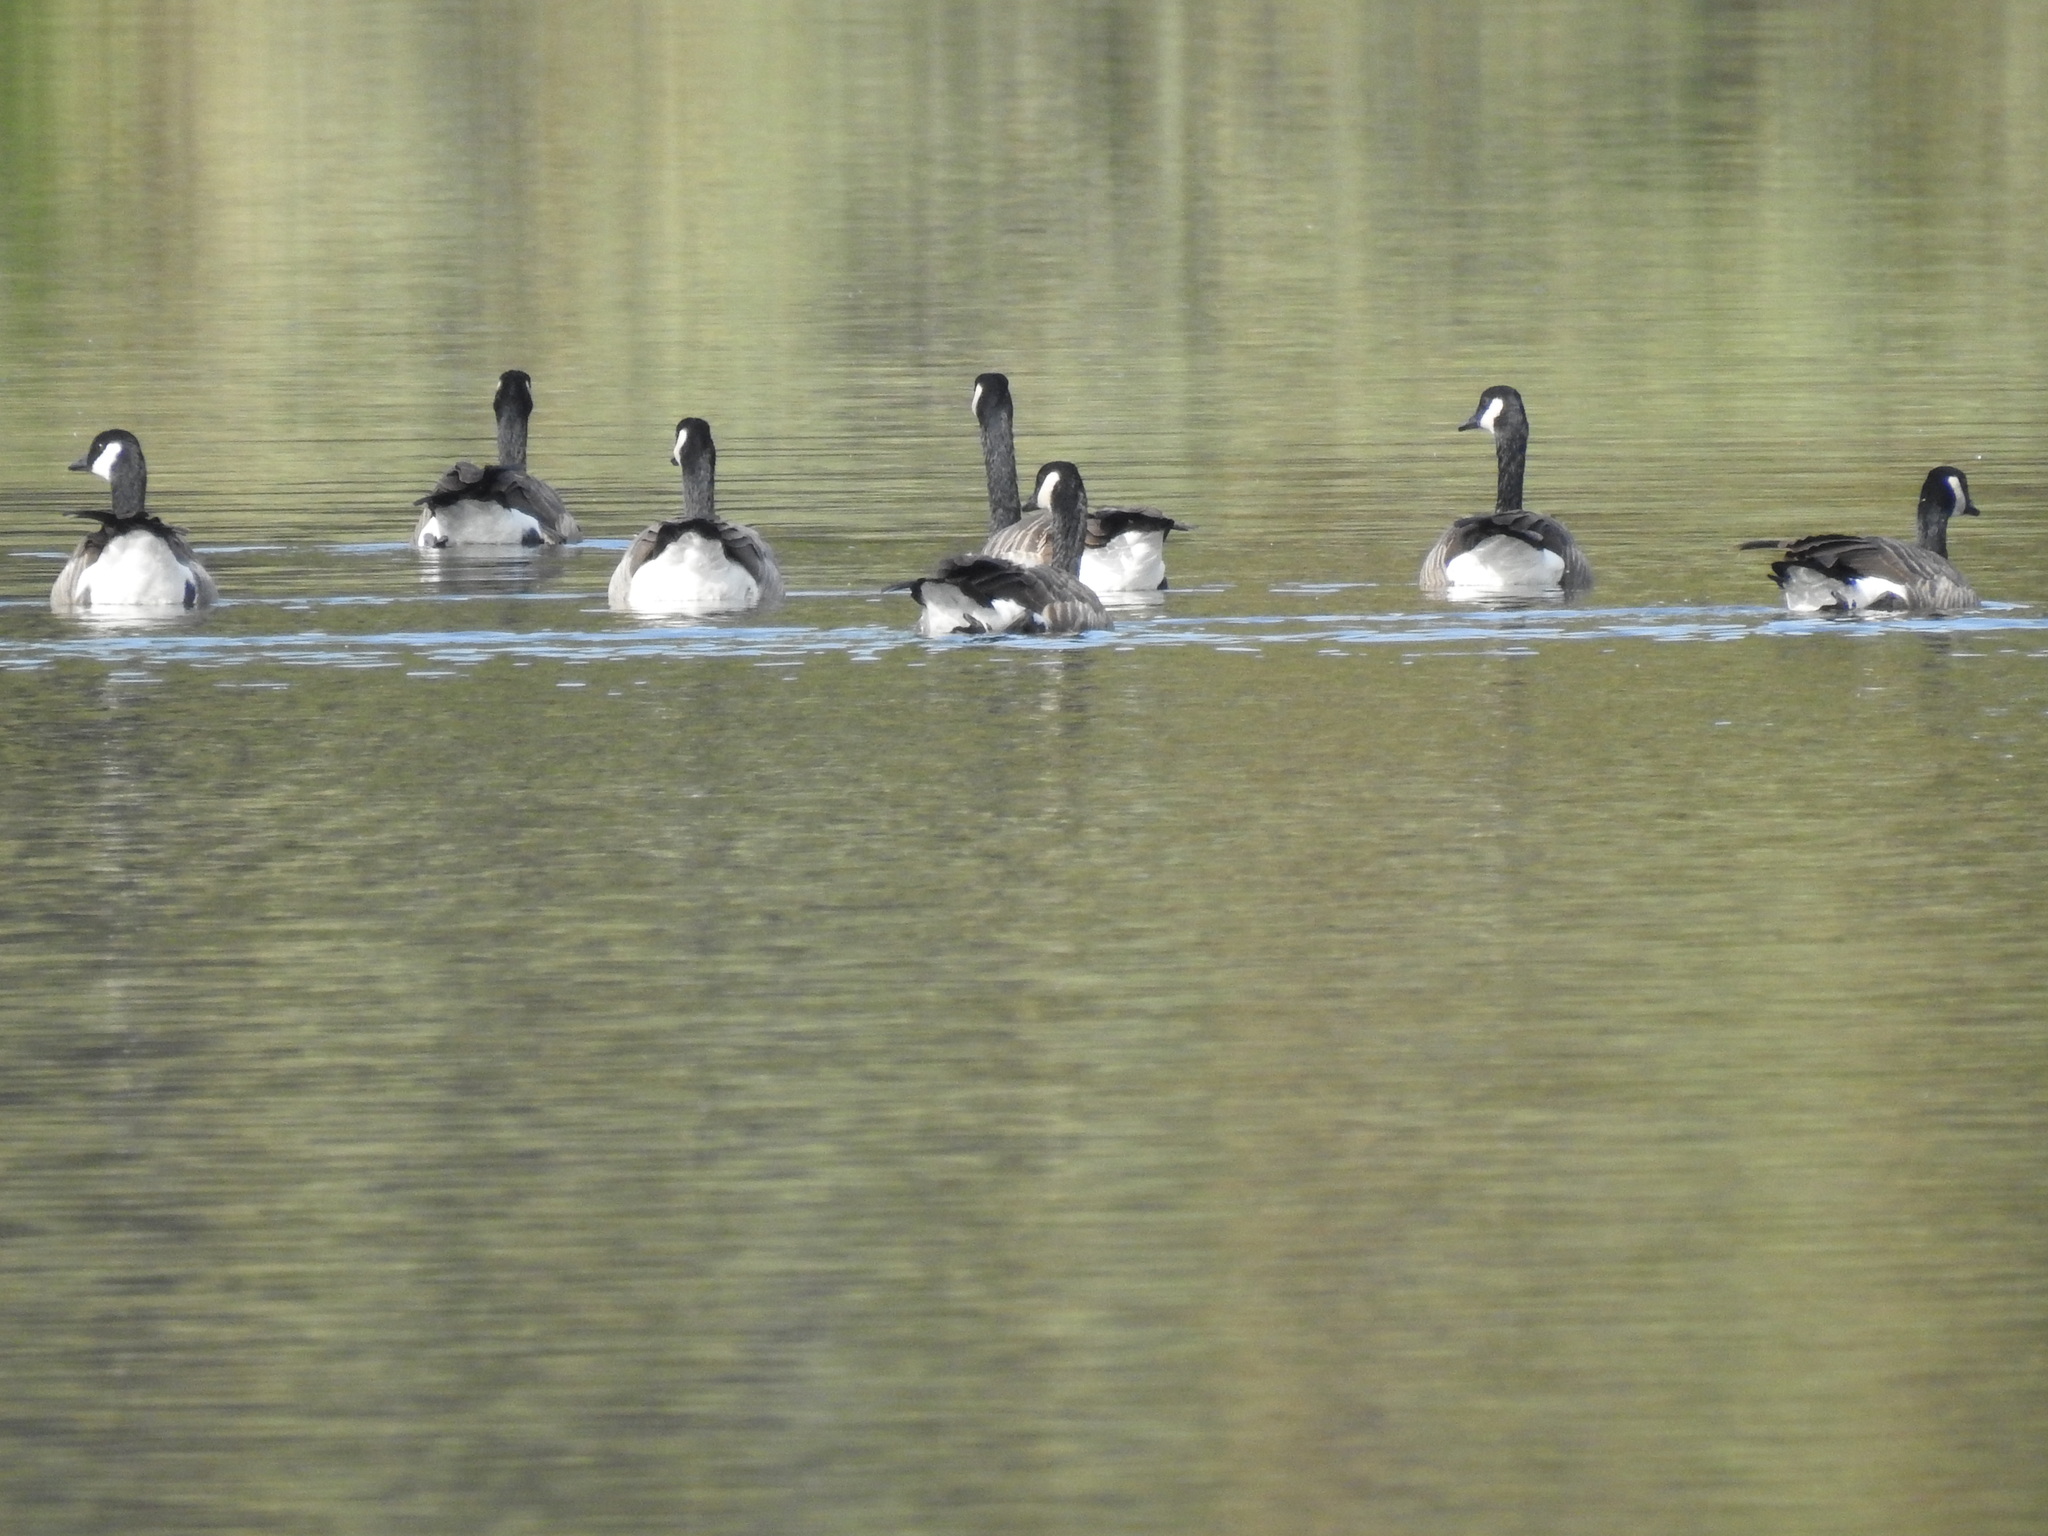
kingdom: Animalia
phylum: Chordata
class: Aves
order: Anseriformes
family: Anatidae
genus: Branta
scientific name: Branta canadensis
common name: Canada goose
